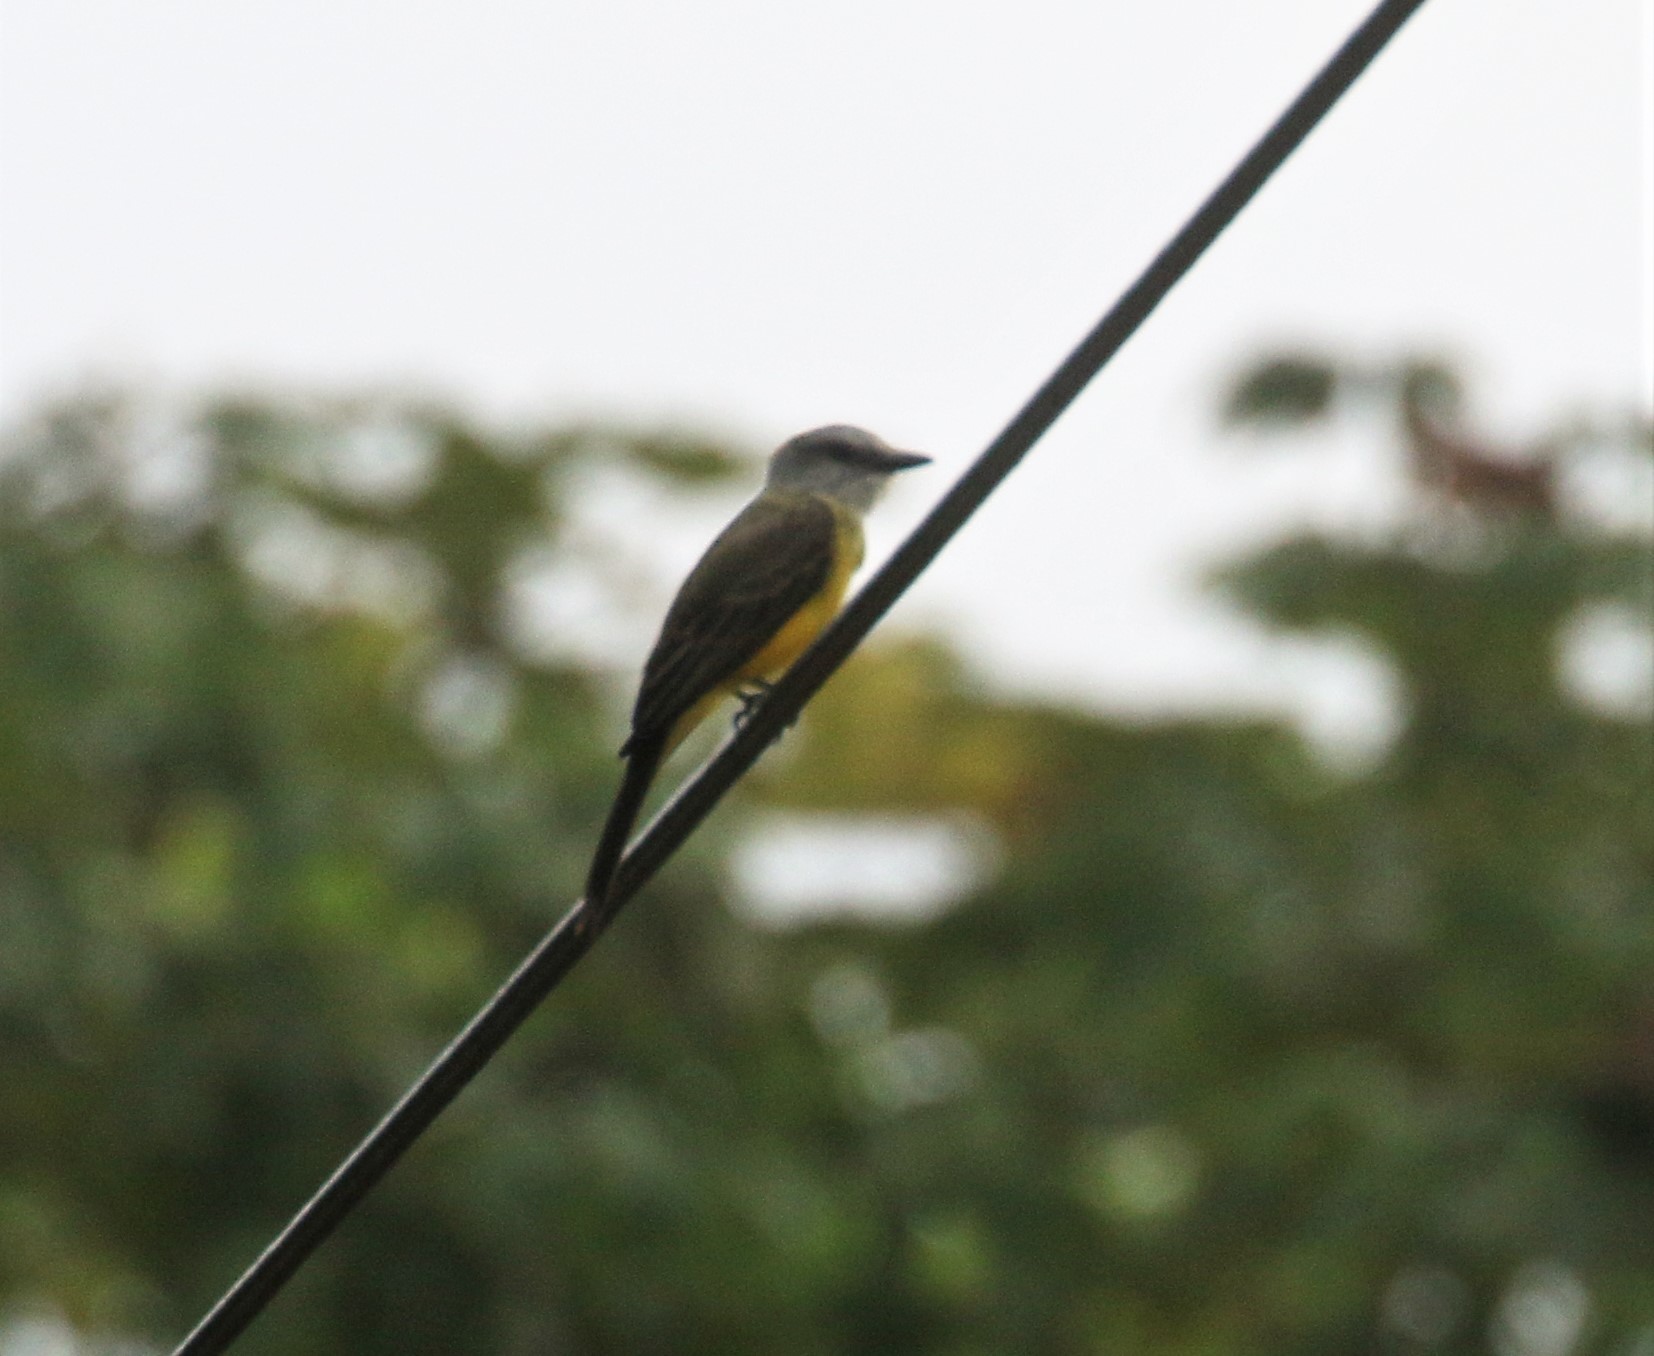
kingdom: Animalia
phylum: Chordata
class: Aves
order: Passeriformes
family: Tyrannidae
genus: Tyrannus
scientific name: Tyrannus melancholicus
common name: Tropical kingbird
